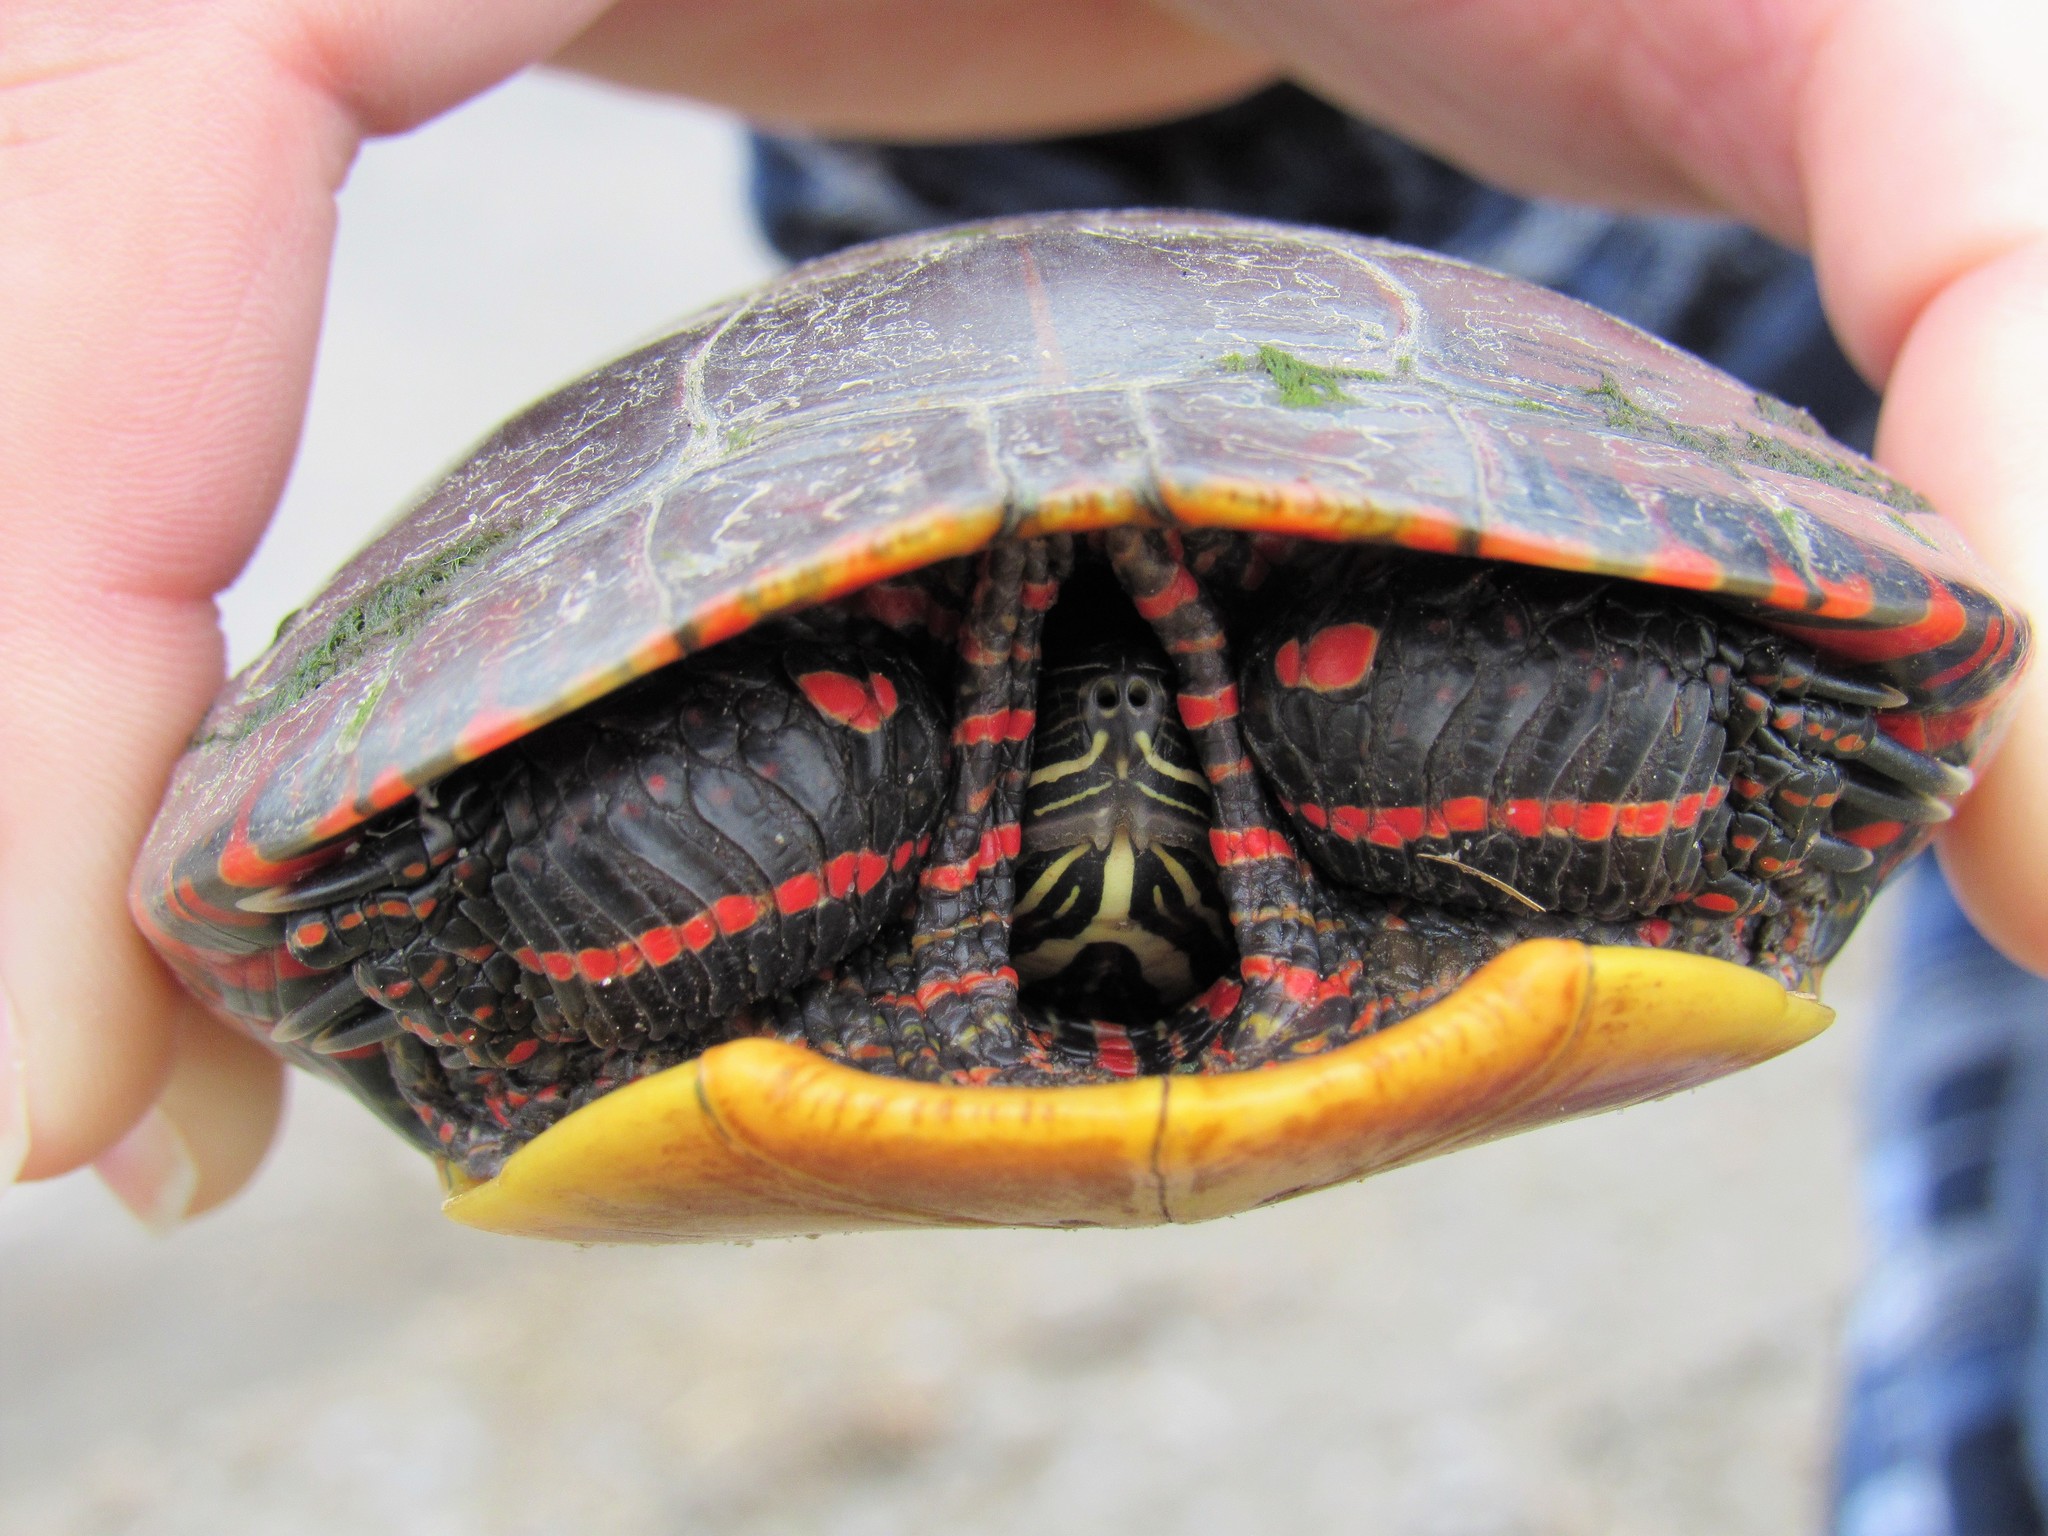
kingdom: Animalia
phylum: Chordata
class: Testudines
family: Emydidae
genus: Chrysemys
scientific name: Chrysemys picta
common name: Painted turtle
